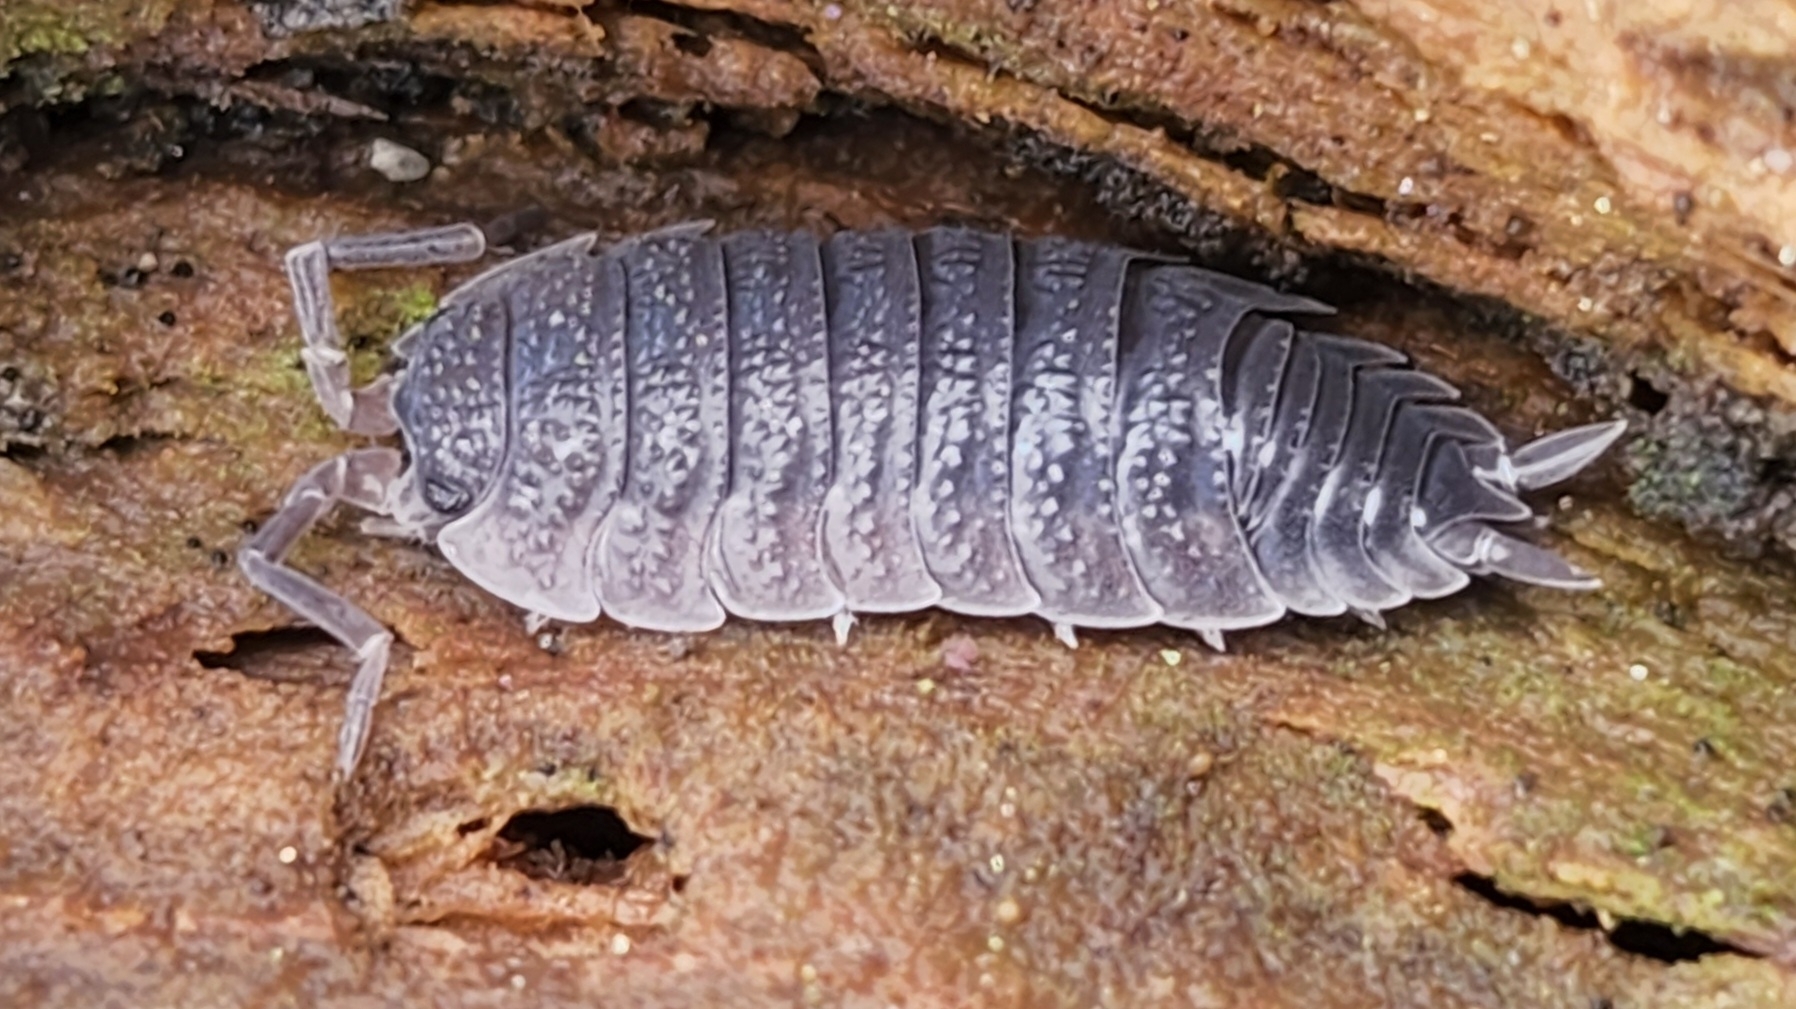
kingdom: Animalia
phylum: Arthropoda
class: Malacostraca
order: Isopoda
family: Porcellionidae
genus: Porcellio
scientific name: Porcellio scaber
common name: Common rough woodlouse
